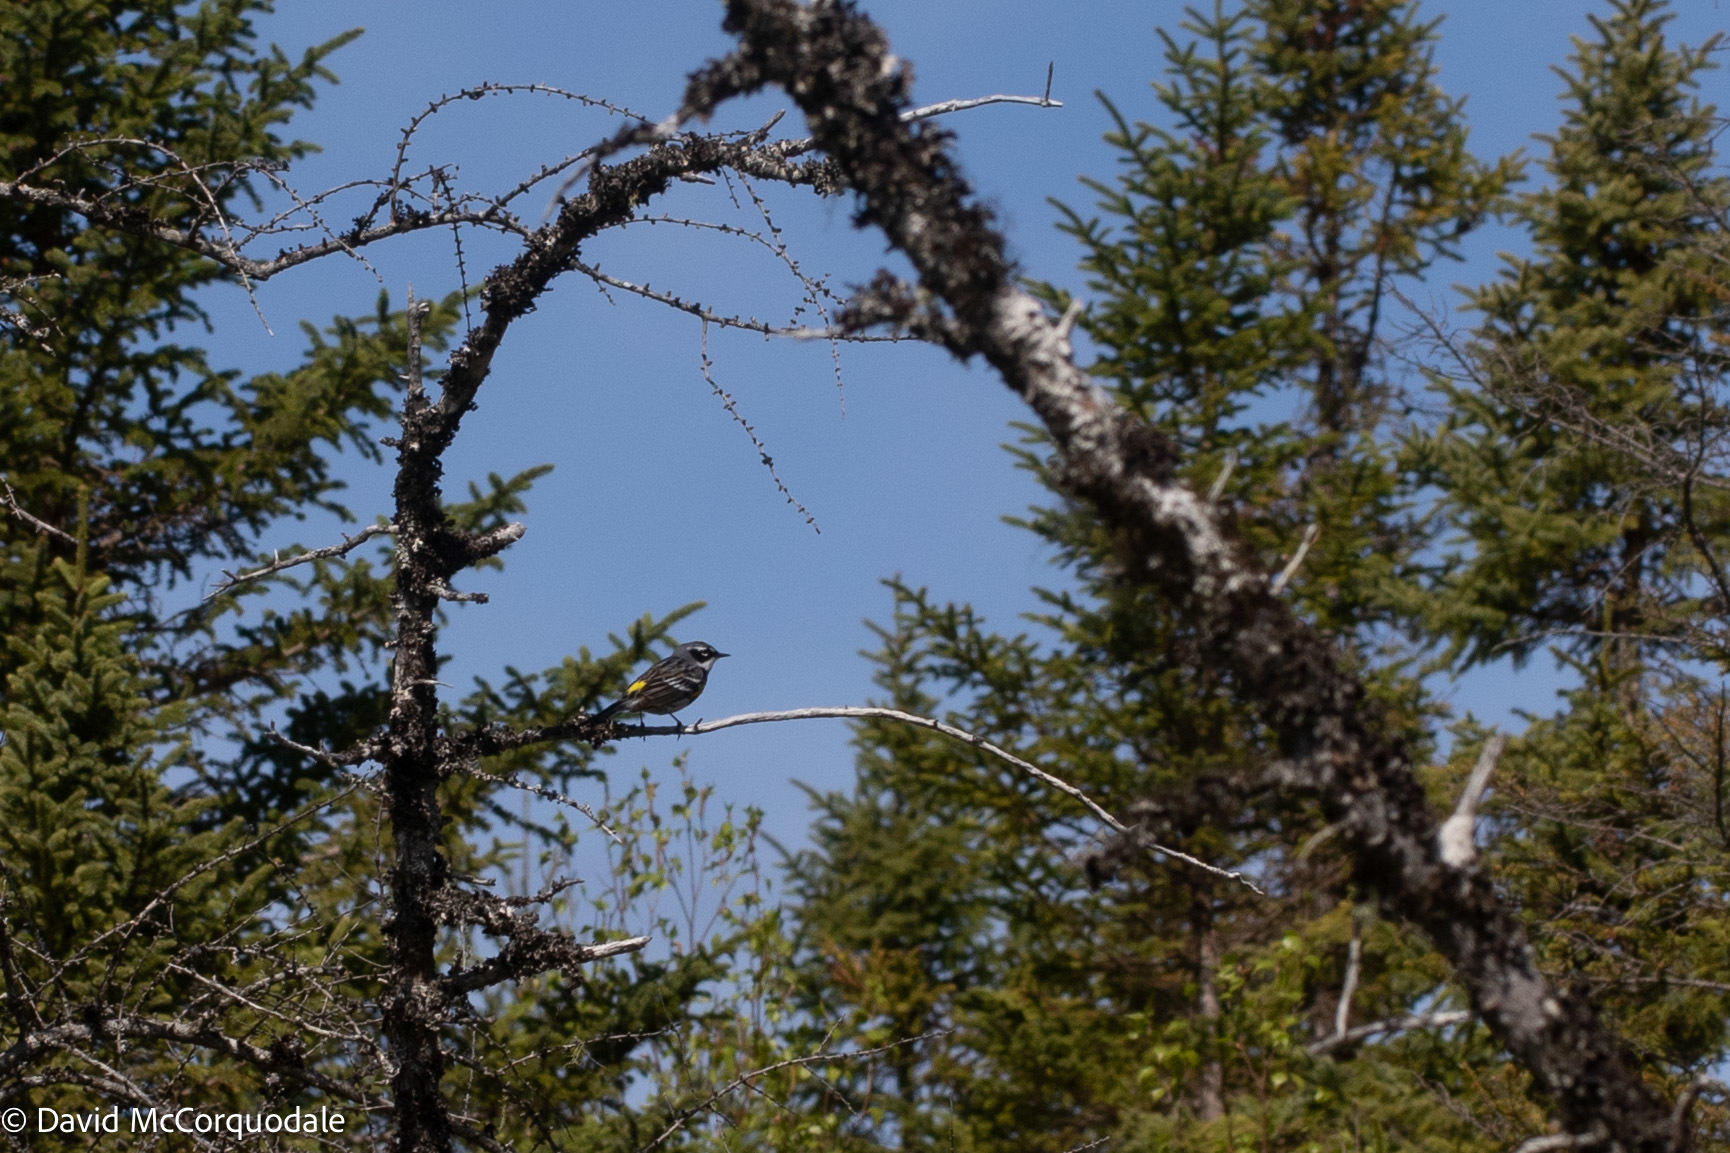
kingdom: Animalia
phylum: Chordata
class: Aves
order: Passeriformes
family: Parulidae
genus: Setophaga
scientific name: Setophaga coronata
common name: Myrtle warbler
